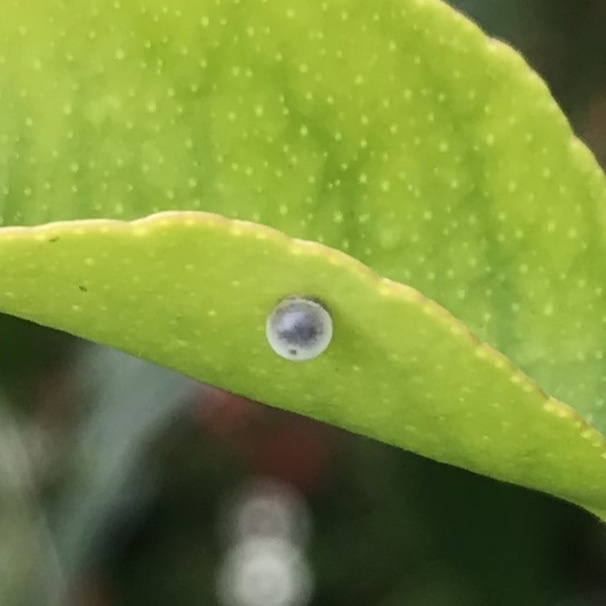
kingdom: Animalia
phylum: Arthropoda
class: Insecta
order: Lepidoptera
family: Papilionidae
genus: Papilio
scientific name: Papilio anactus
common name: Dingy swallowtail
